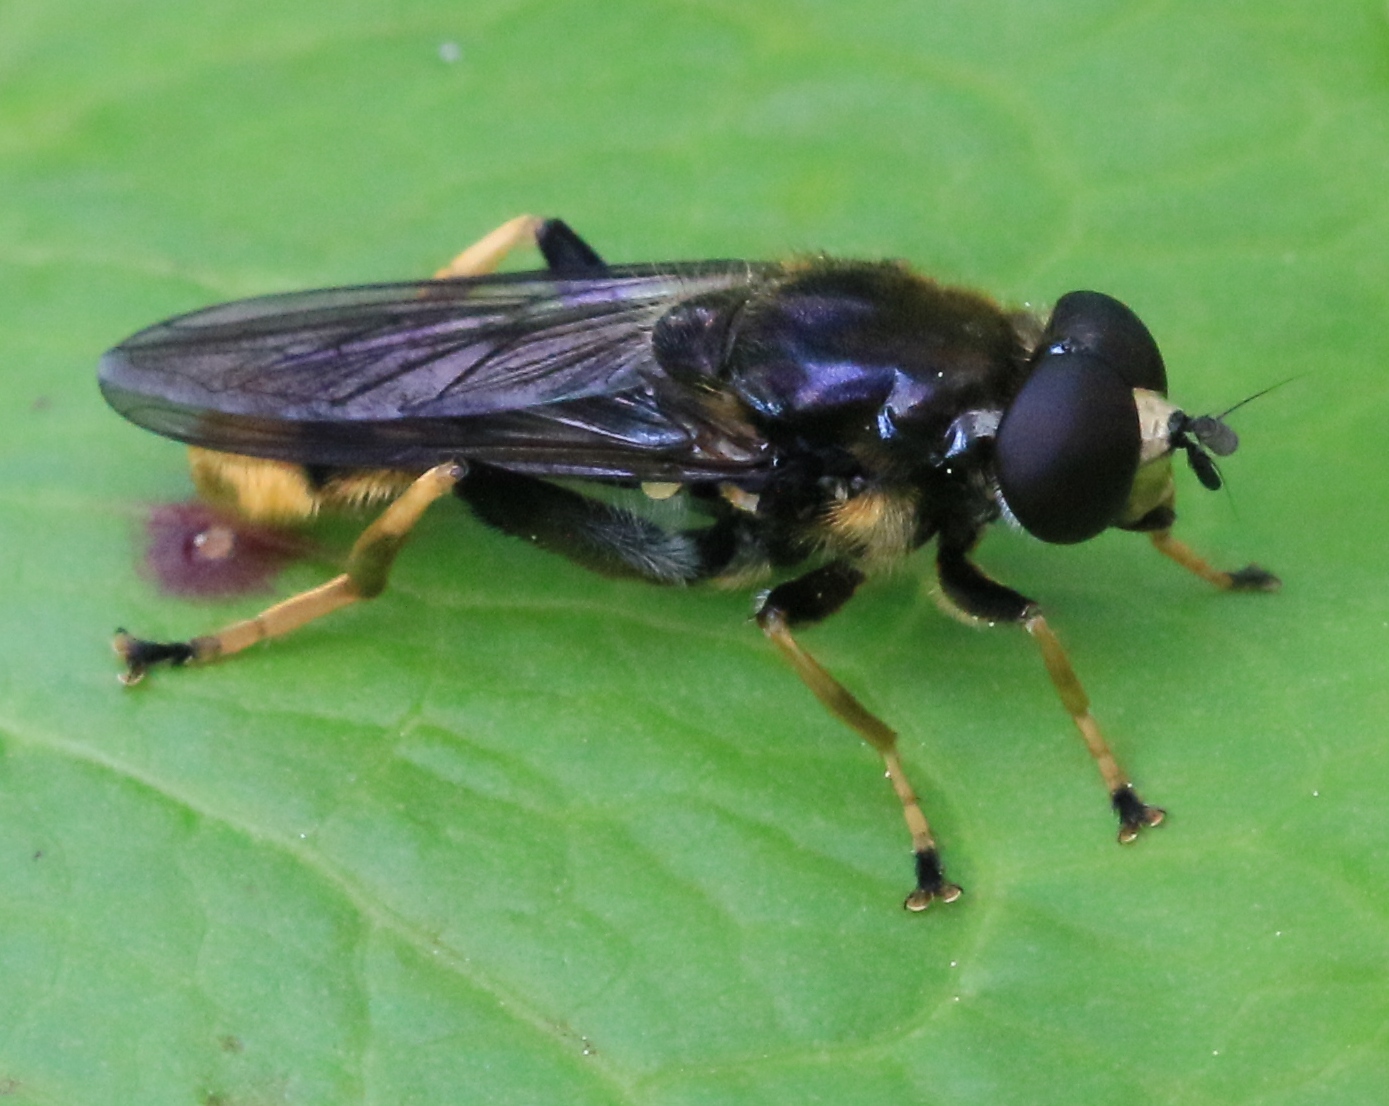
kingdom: Animalia
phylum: Arthropoda
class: Insecta
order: Diptera
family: Syrphidae
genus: Xylota
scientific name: Xylota sylvarum
